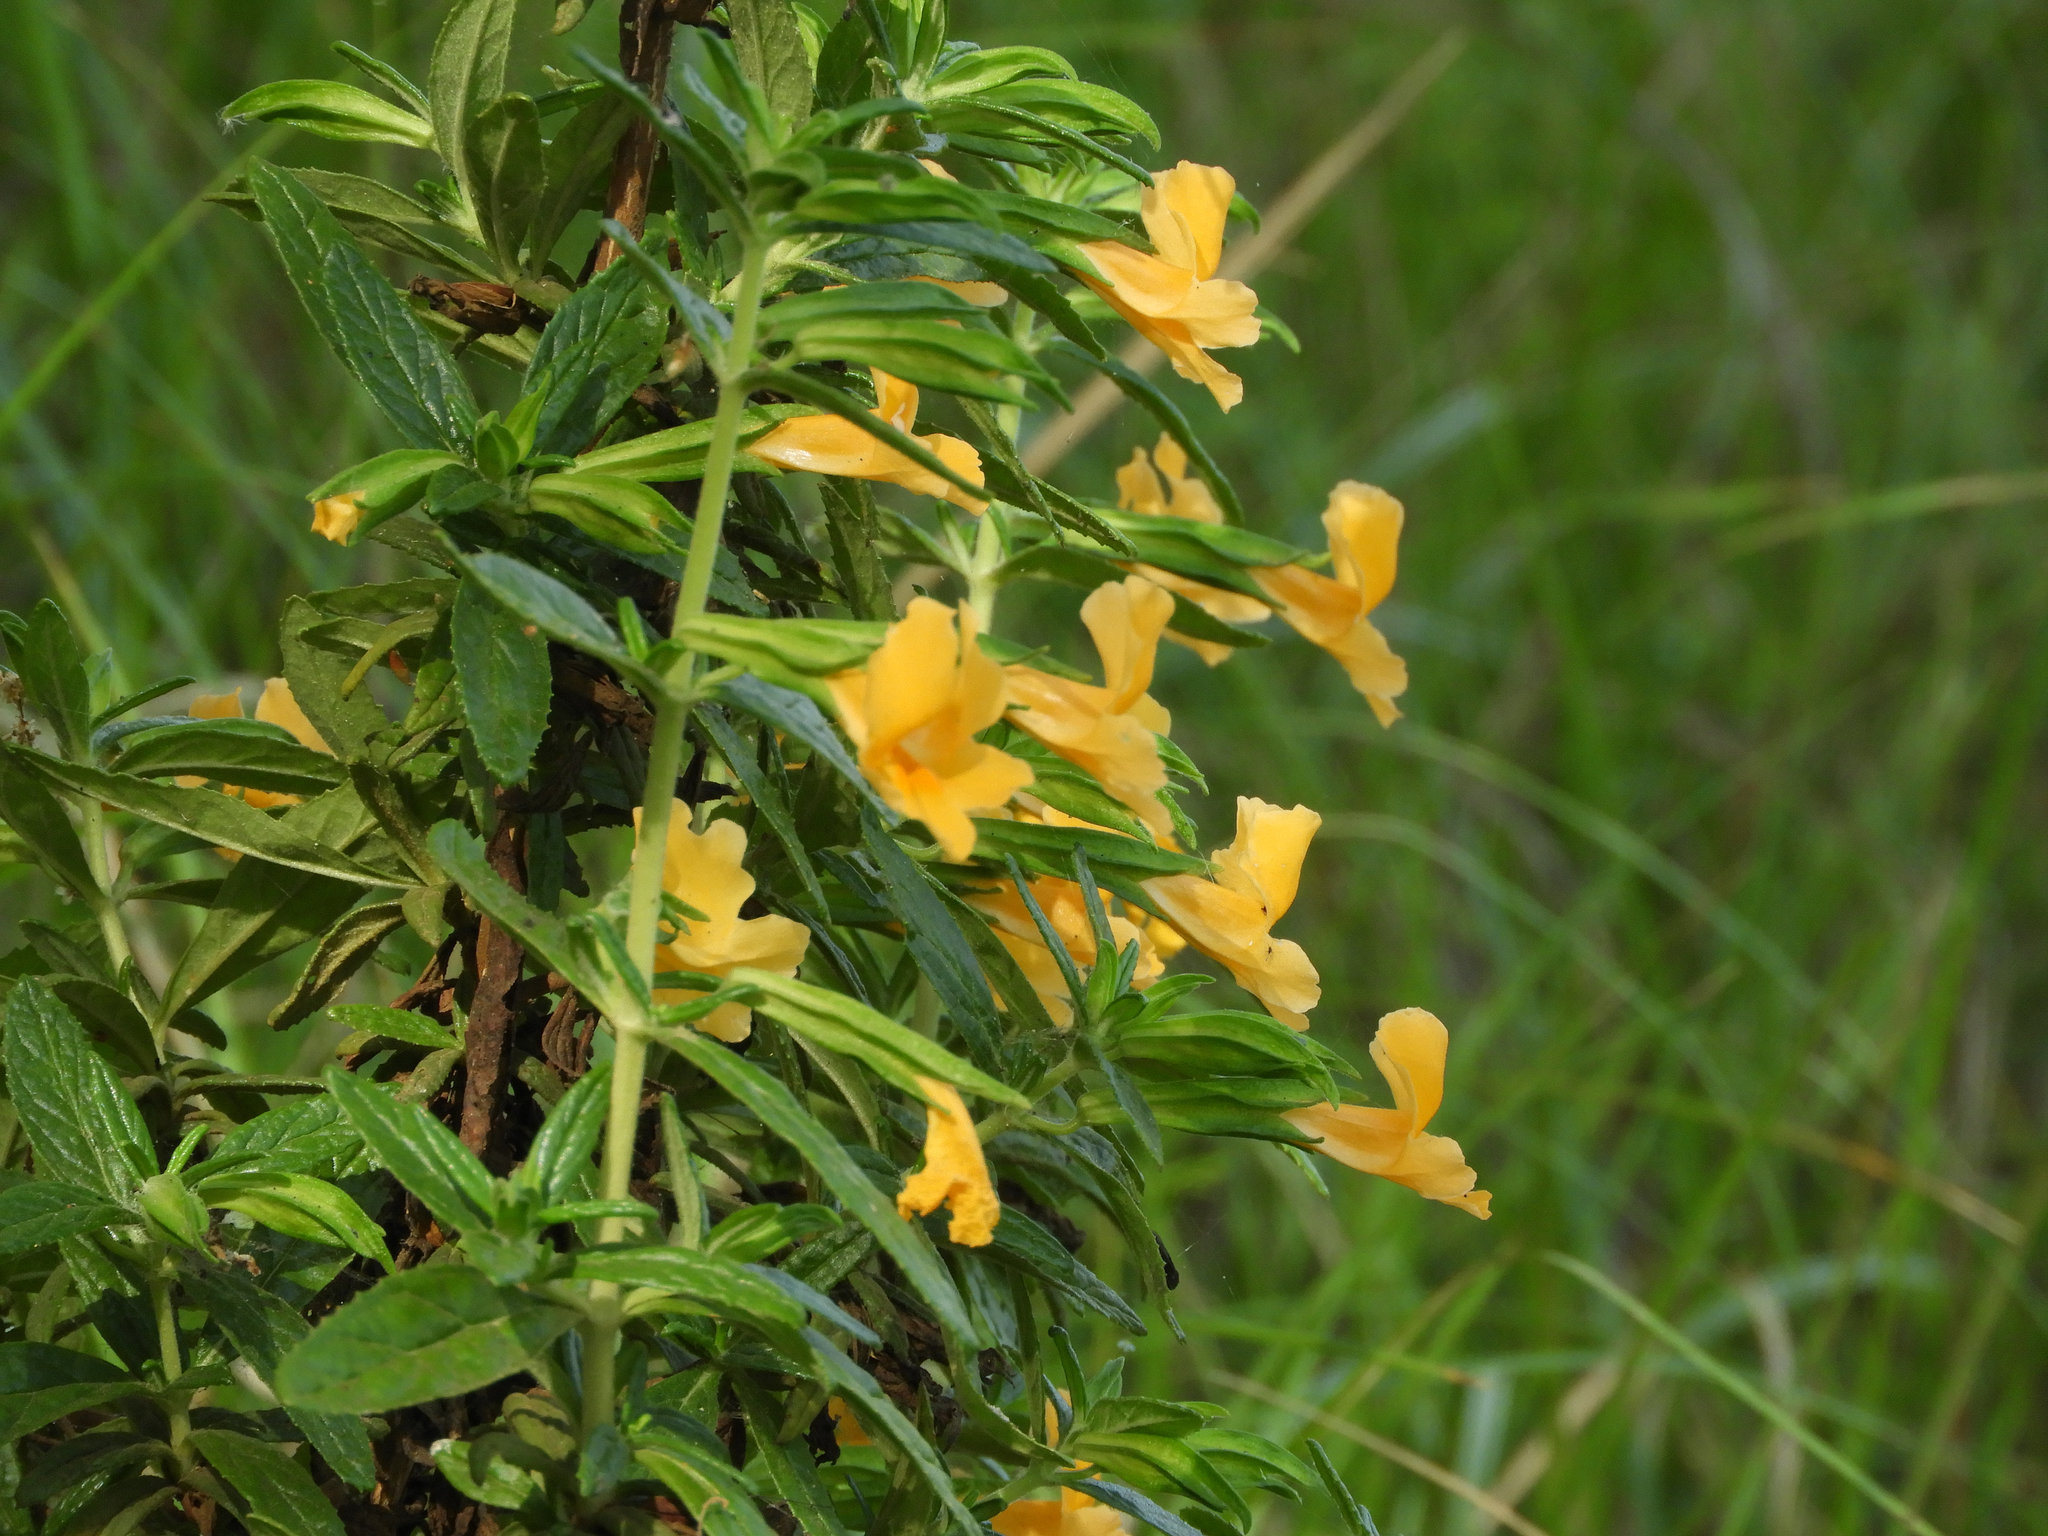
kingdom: Plantae
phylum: Tracheophyta
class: Magnoliopsida
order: Lamiales
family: Phrymaceae
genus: Diplacus
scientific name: Diplacus aurantiacus
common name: Bush monkey-flower
